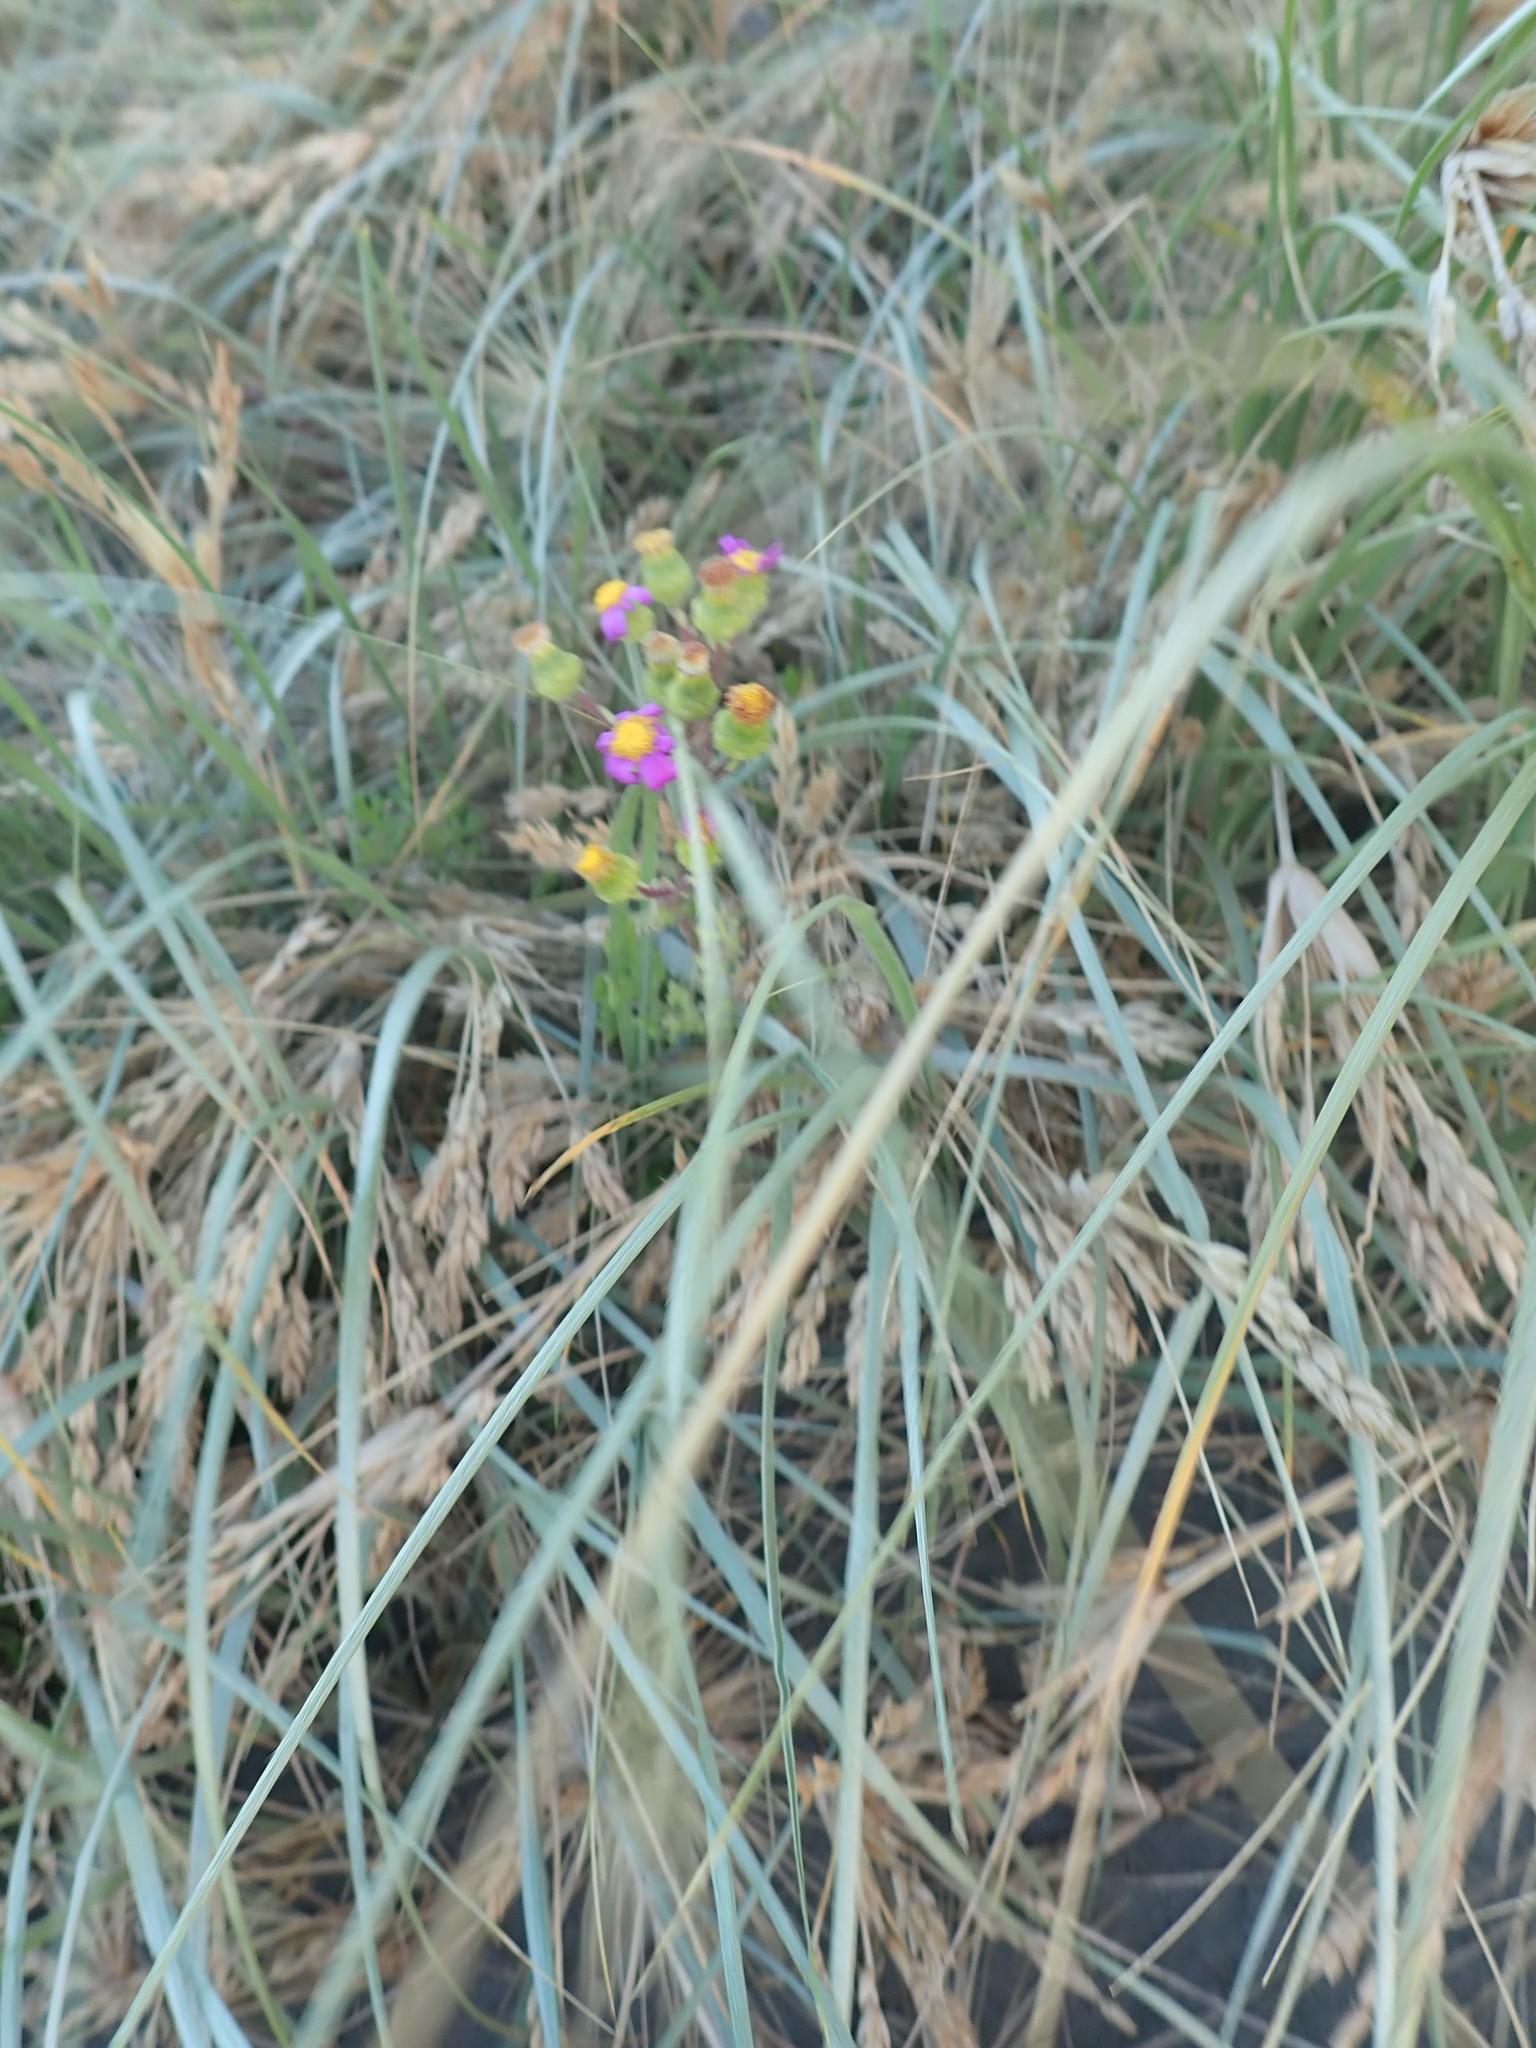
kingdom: Plantae
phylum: Tracheophyta
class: Magnoliopsida
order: Asterales
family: Asteraceae
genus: Senecio
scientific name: Senecio elegans
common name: Purple groundsel
